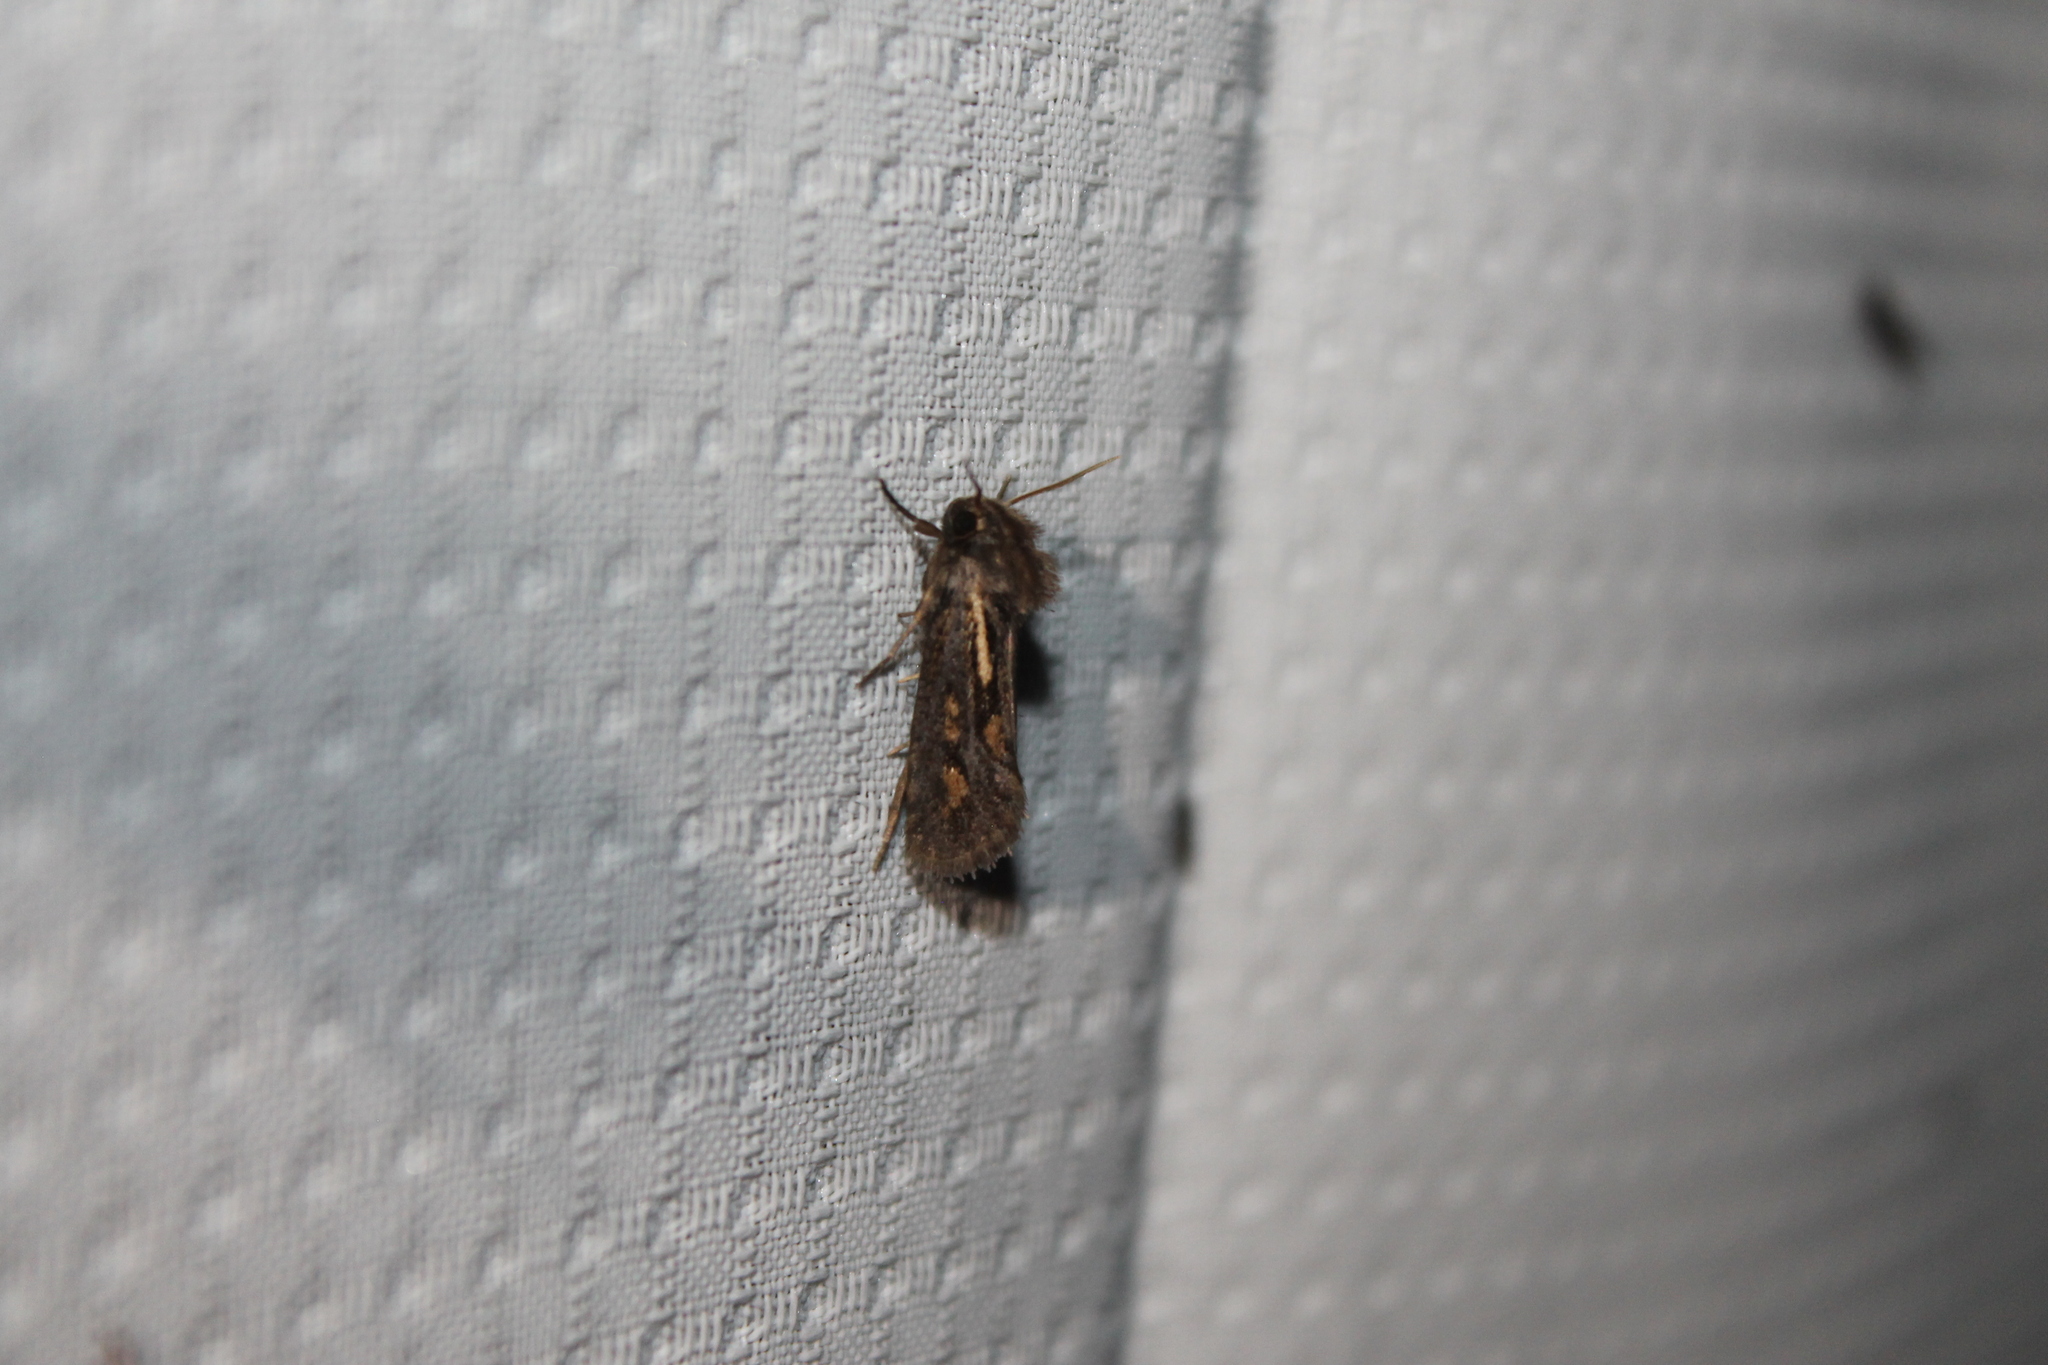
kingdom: Animalia
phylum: Arthropoda
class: Insecta
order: Lepidoptera
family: Tineidae
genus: Acrolophus
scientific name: Acrolophus popeanella
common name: Clemens' grass tubeworm moth
